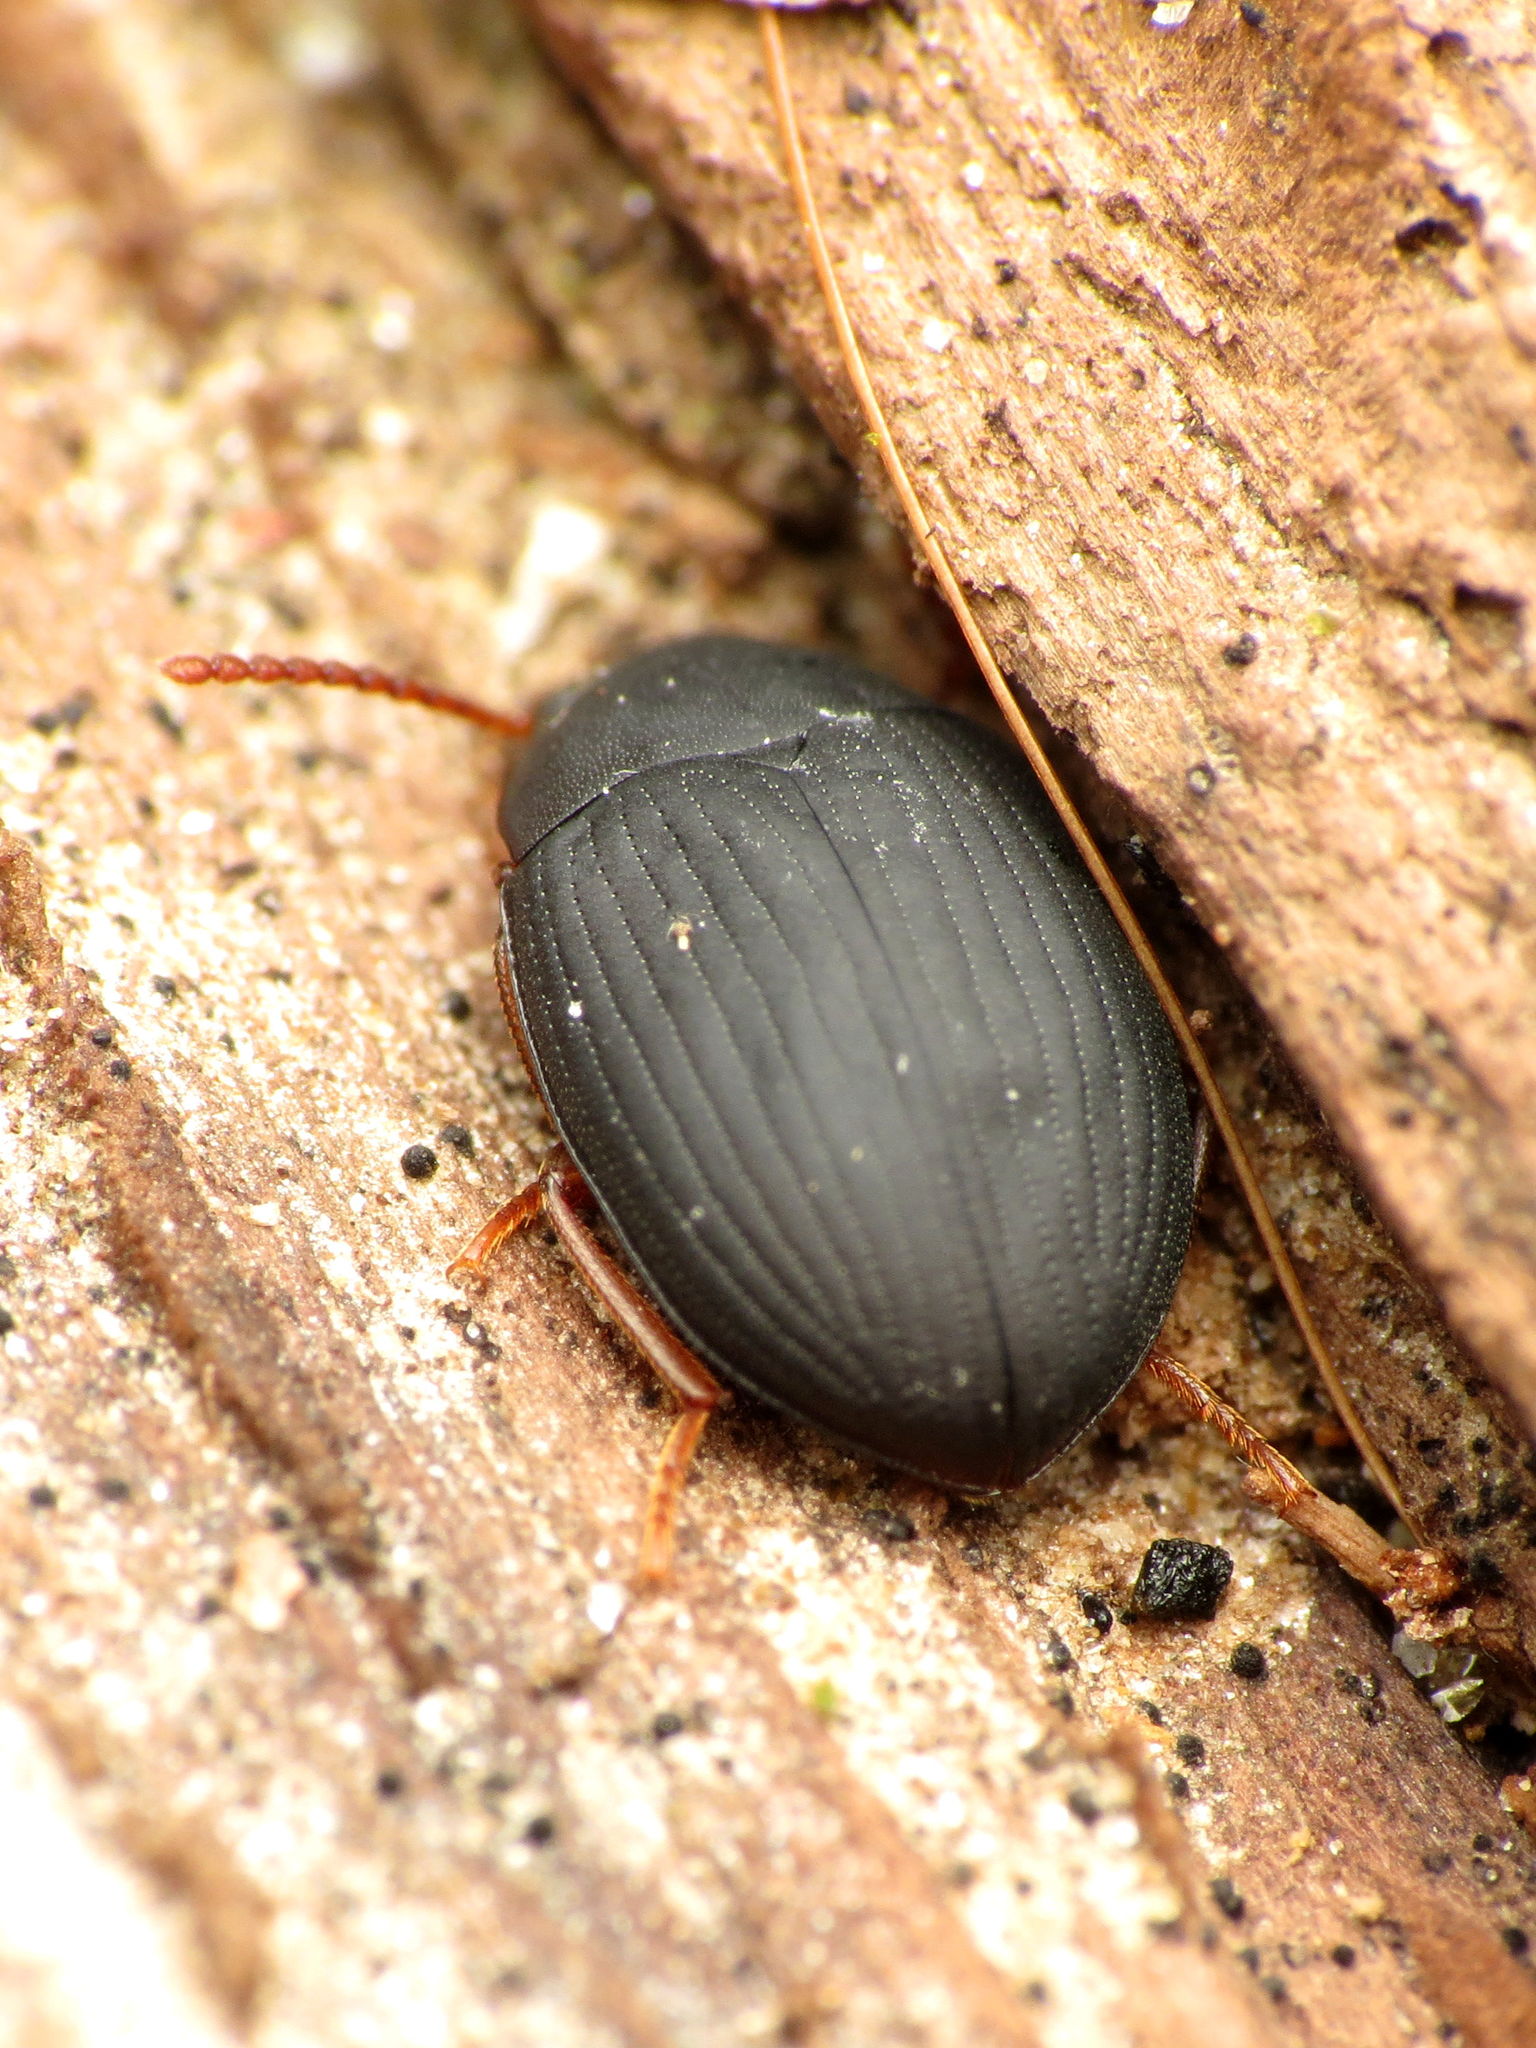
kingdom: Animalia
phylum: Arthropoda
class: Insecta
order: Coleoptera
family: Tenebrionidae
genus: Platydema
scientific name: Platydema ruficornis
